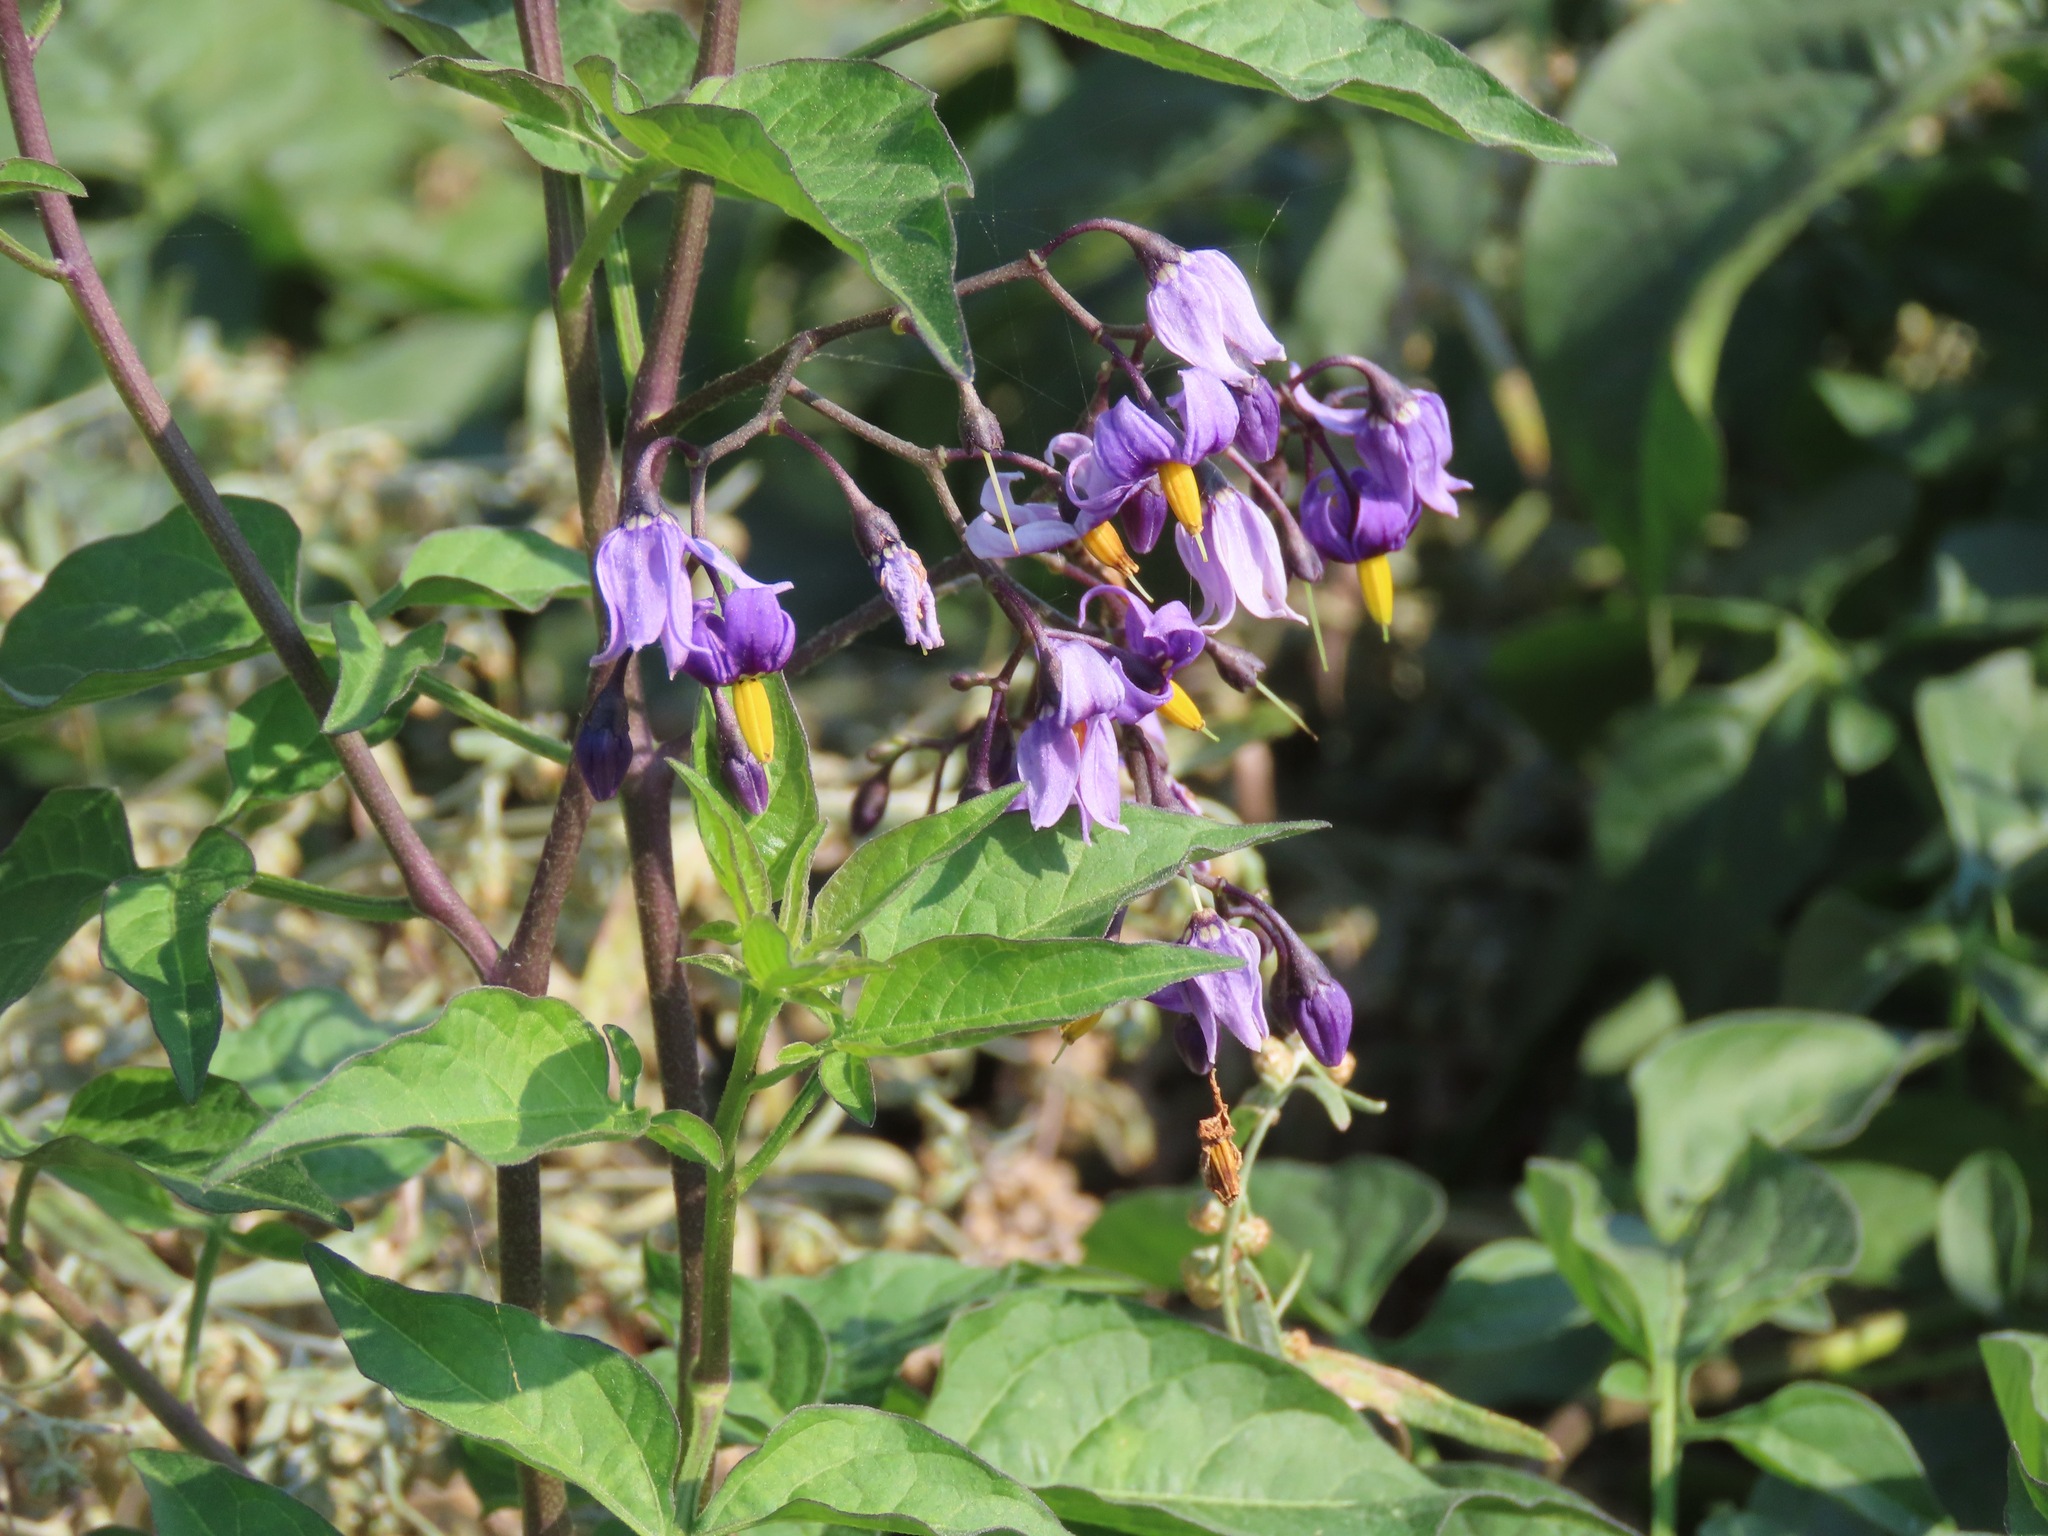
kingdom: Plantae
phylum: Tracheophyta
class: Magnoliopsida
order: Solanales
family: Solanaceae
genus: Solanum
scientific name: Solanum dulcamara
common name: Climbing nightshade
